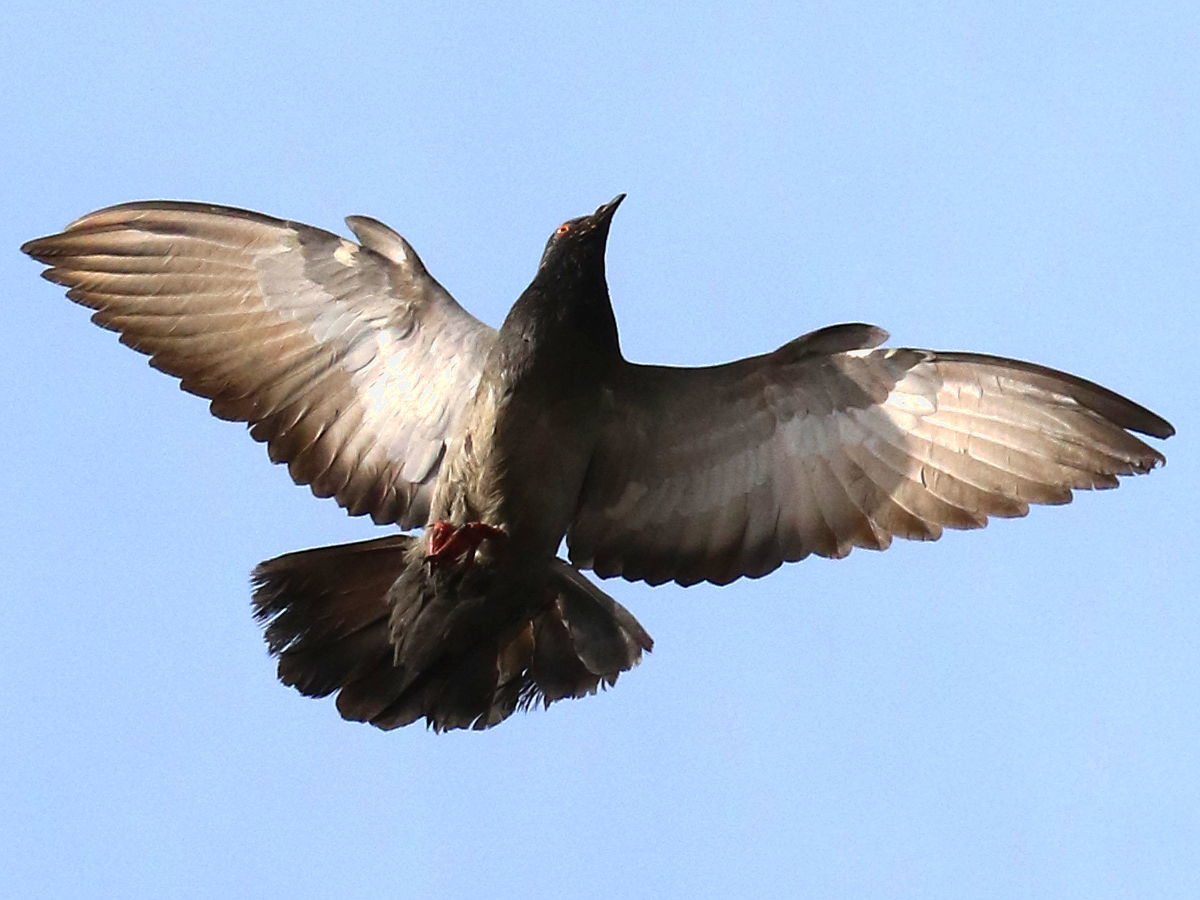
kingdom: Animalia
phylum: Chordata
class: Aves
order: Columbiformes
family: Columbidae
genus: Columba
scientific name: Columba livia
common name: Rock pigeon
